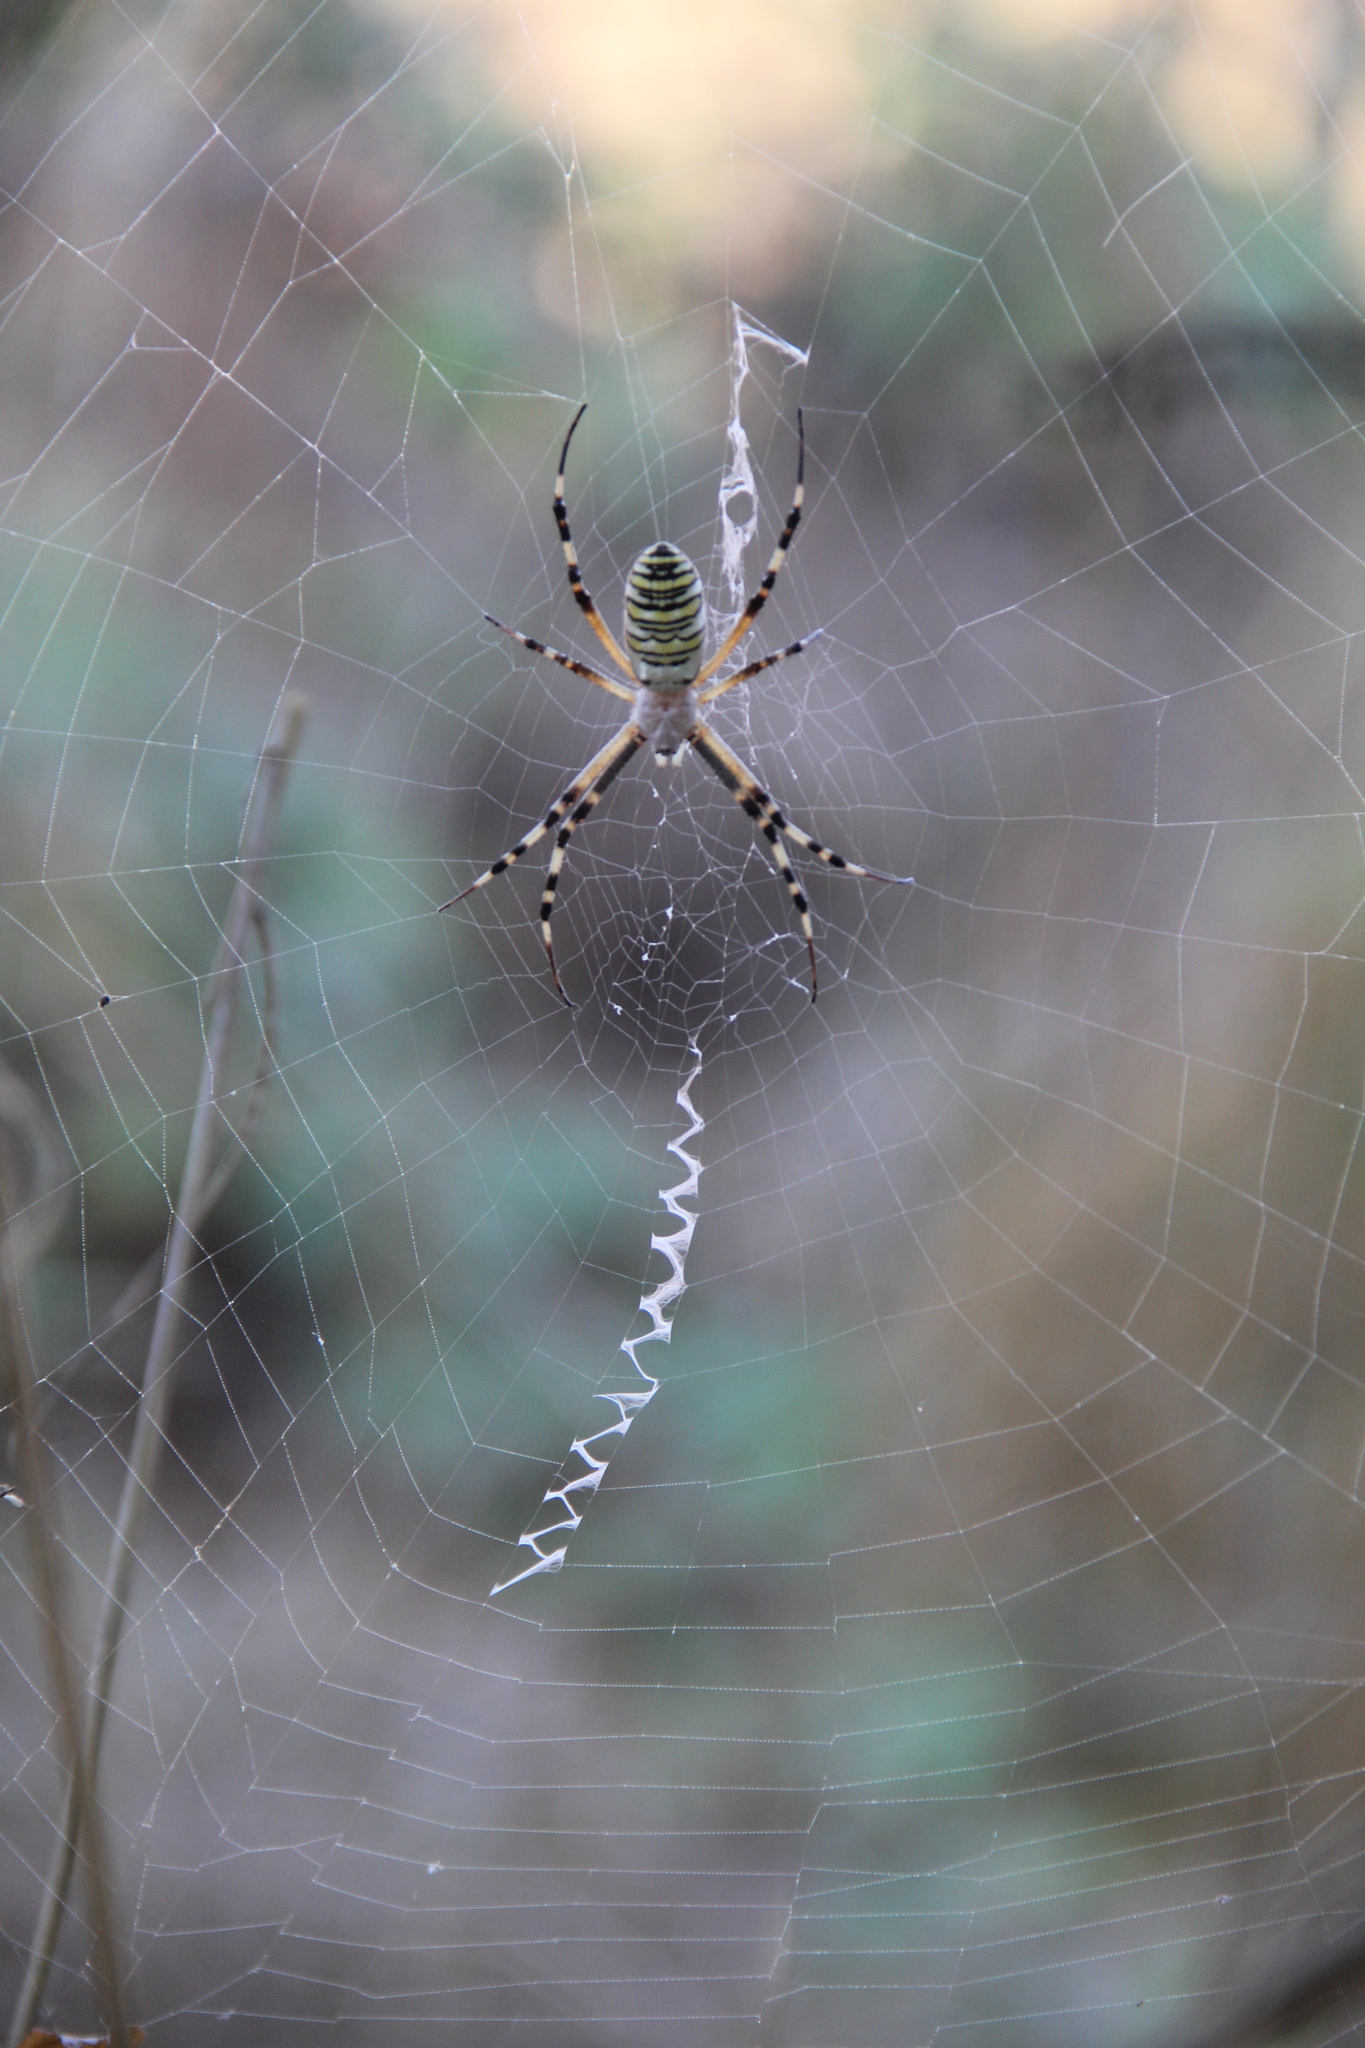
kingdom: Animalia
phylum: Arthropoda
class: Arachnida
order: Araneae
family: Araneidae
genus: Argiope
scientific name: Argiope bruennichi
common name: Wasp spider
